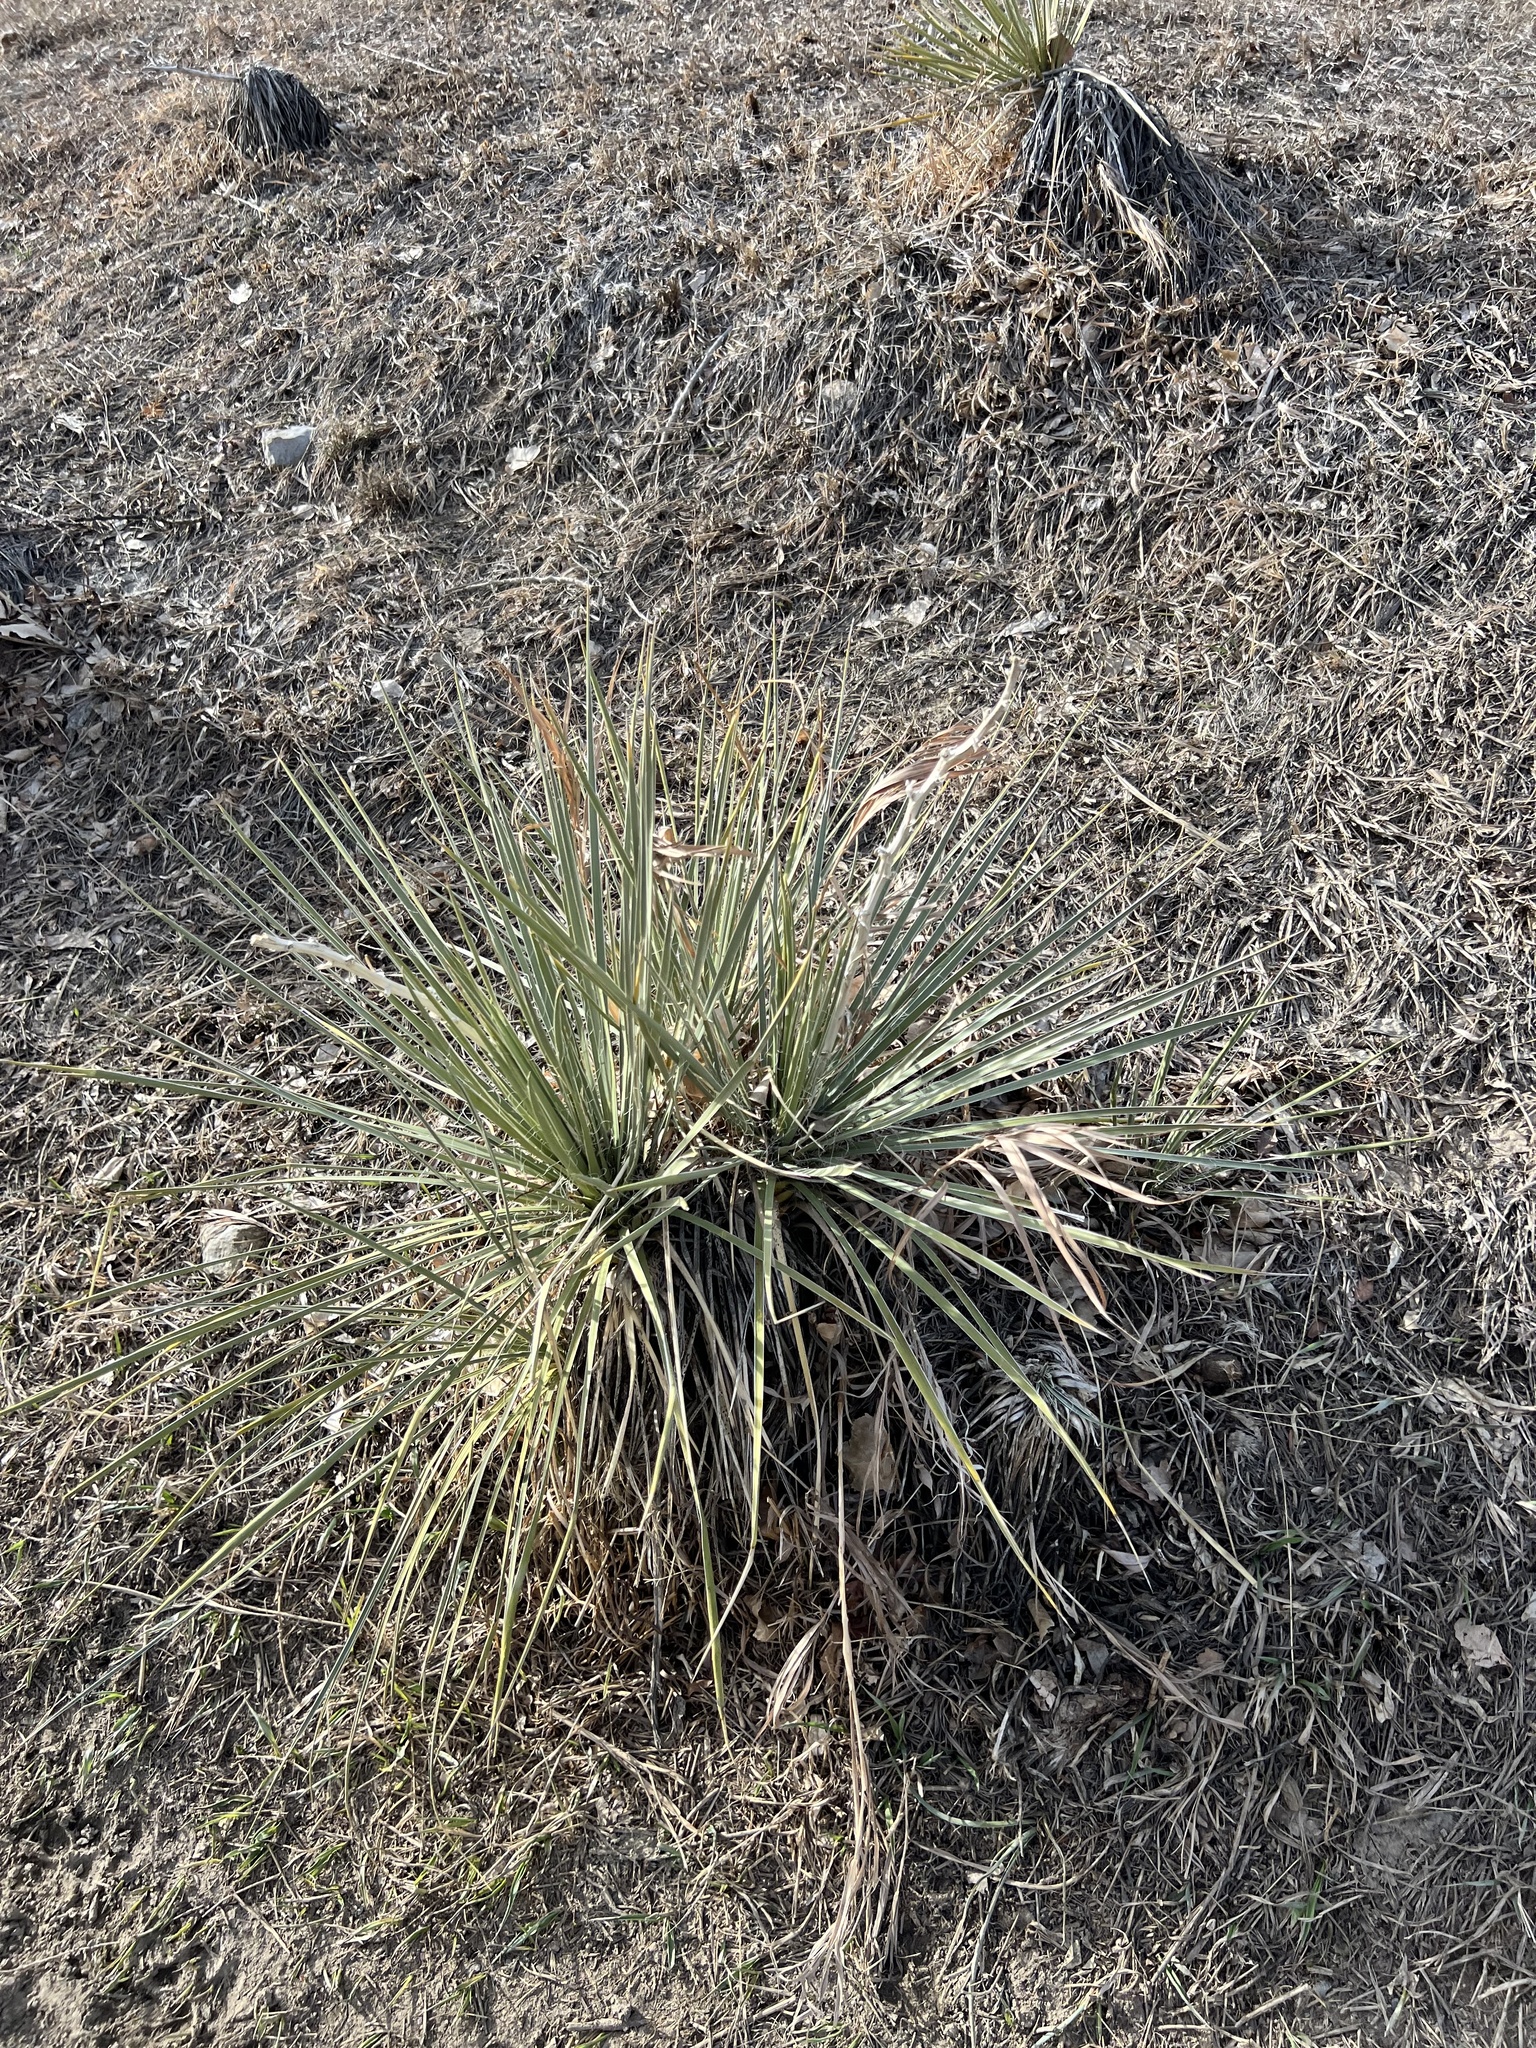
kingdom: Plantae
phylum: Tracheophyta
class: Liliopsida
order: Asparagales
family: Asparagaceae
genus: Yucca
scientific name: Yucca glauca
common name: Great plains yucca
